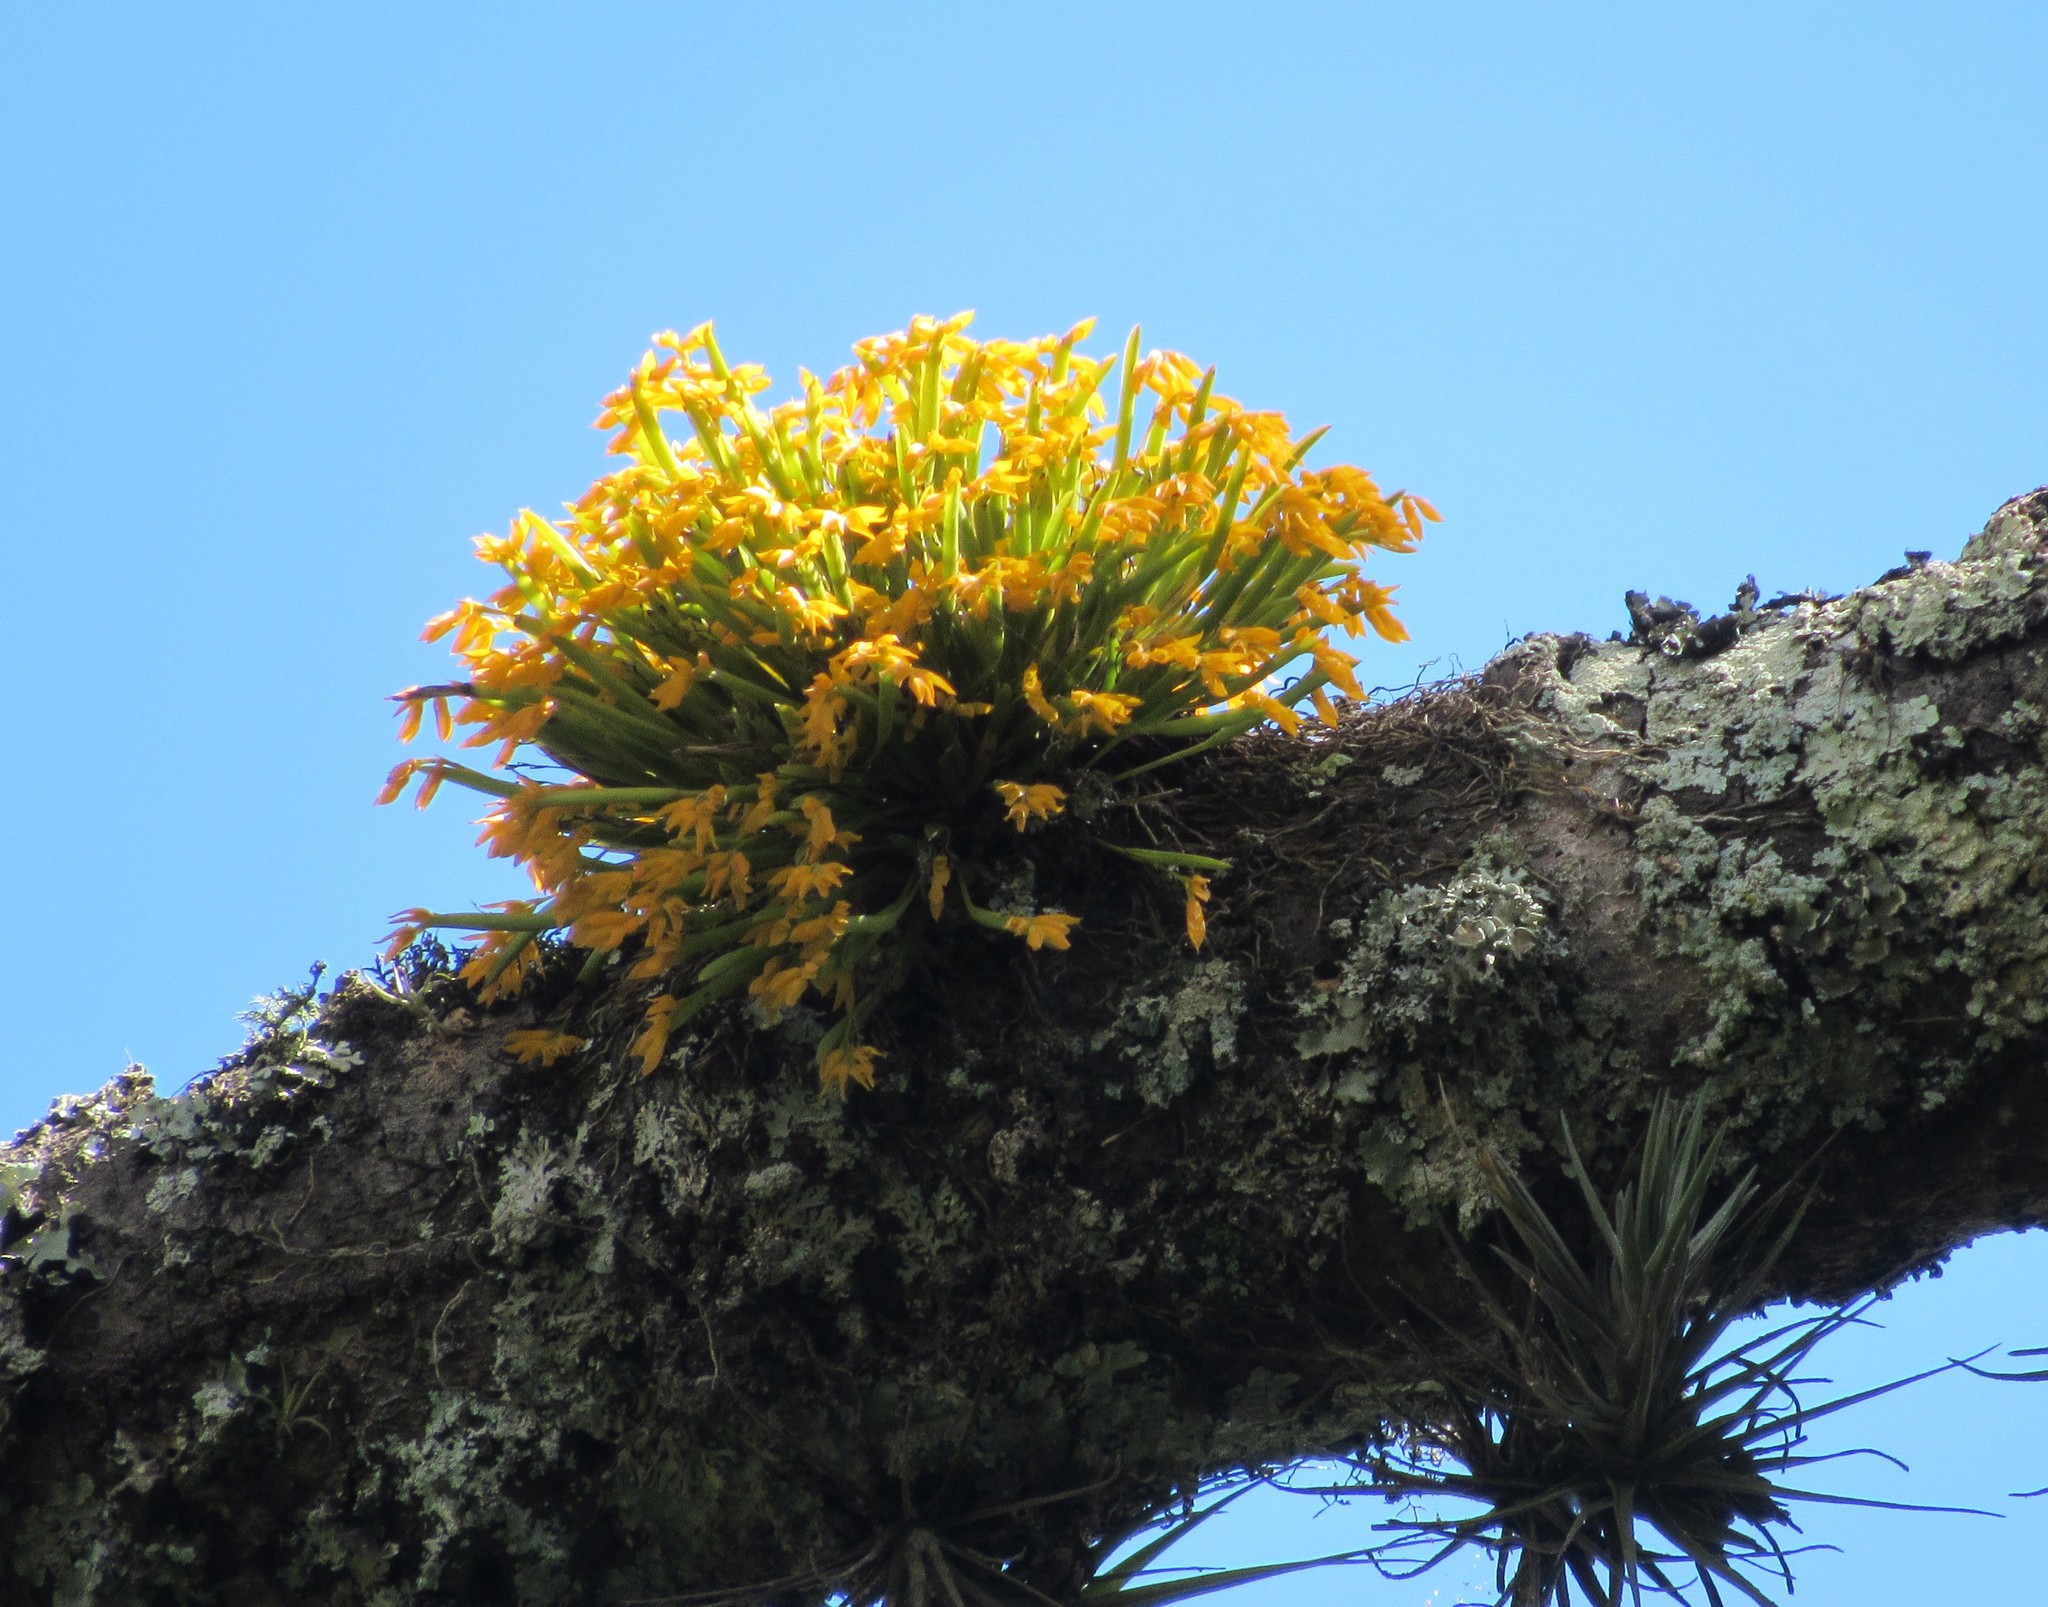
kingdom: Plantae
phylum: Tracheophyta
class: Liliopsida
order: Asparagales
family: Orchidaceae
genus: Acianthera
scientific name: Acianthera sonderiana
